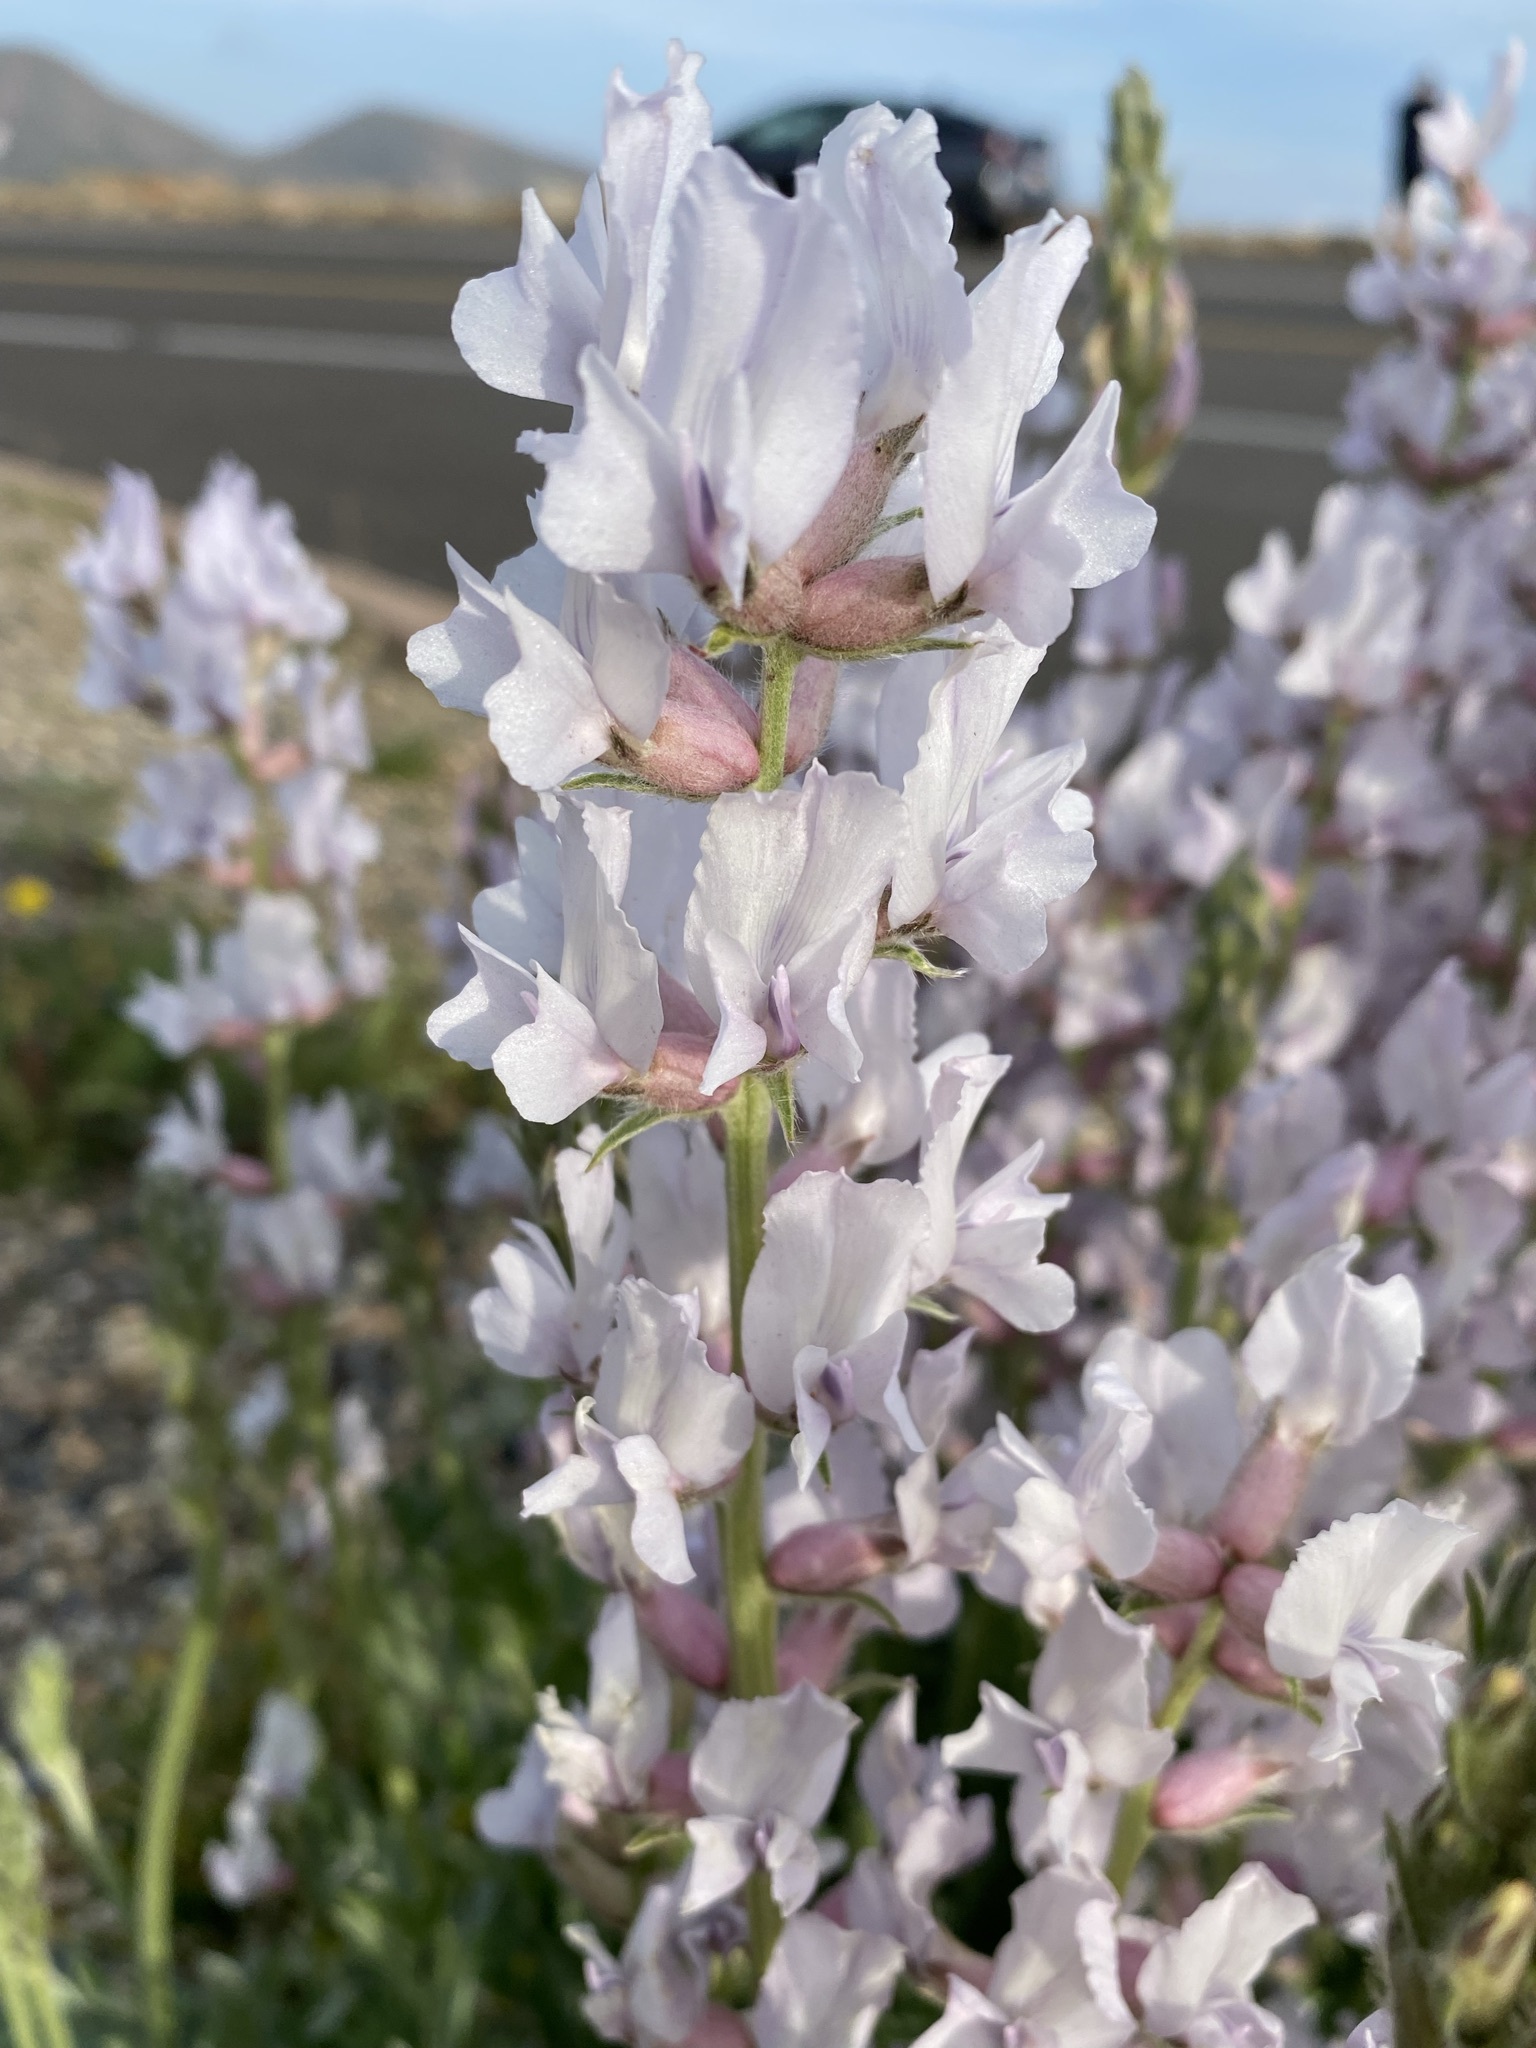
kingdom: Plantae
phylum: Tracheophyta
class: Magnoliopsida
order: Fabales
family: Fabaceae
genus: Oxytropis
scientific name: Oxytropis sericea
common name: Silky locoweed
